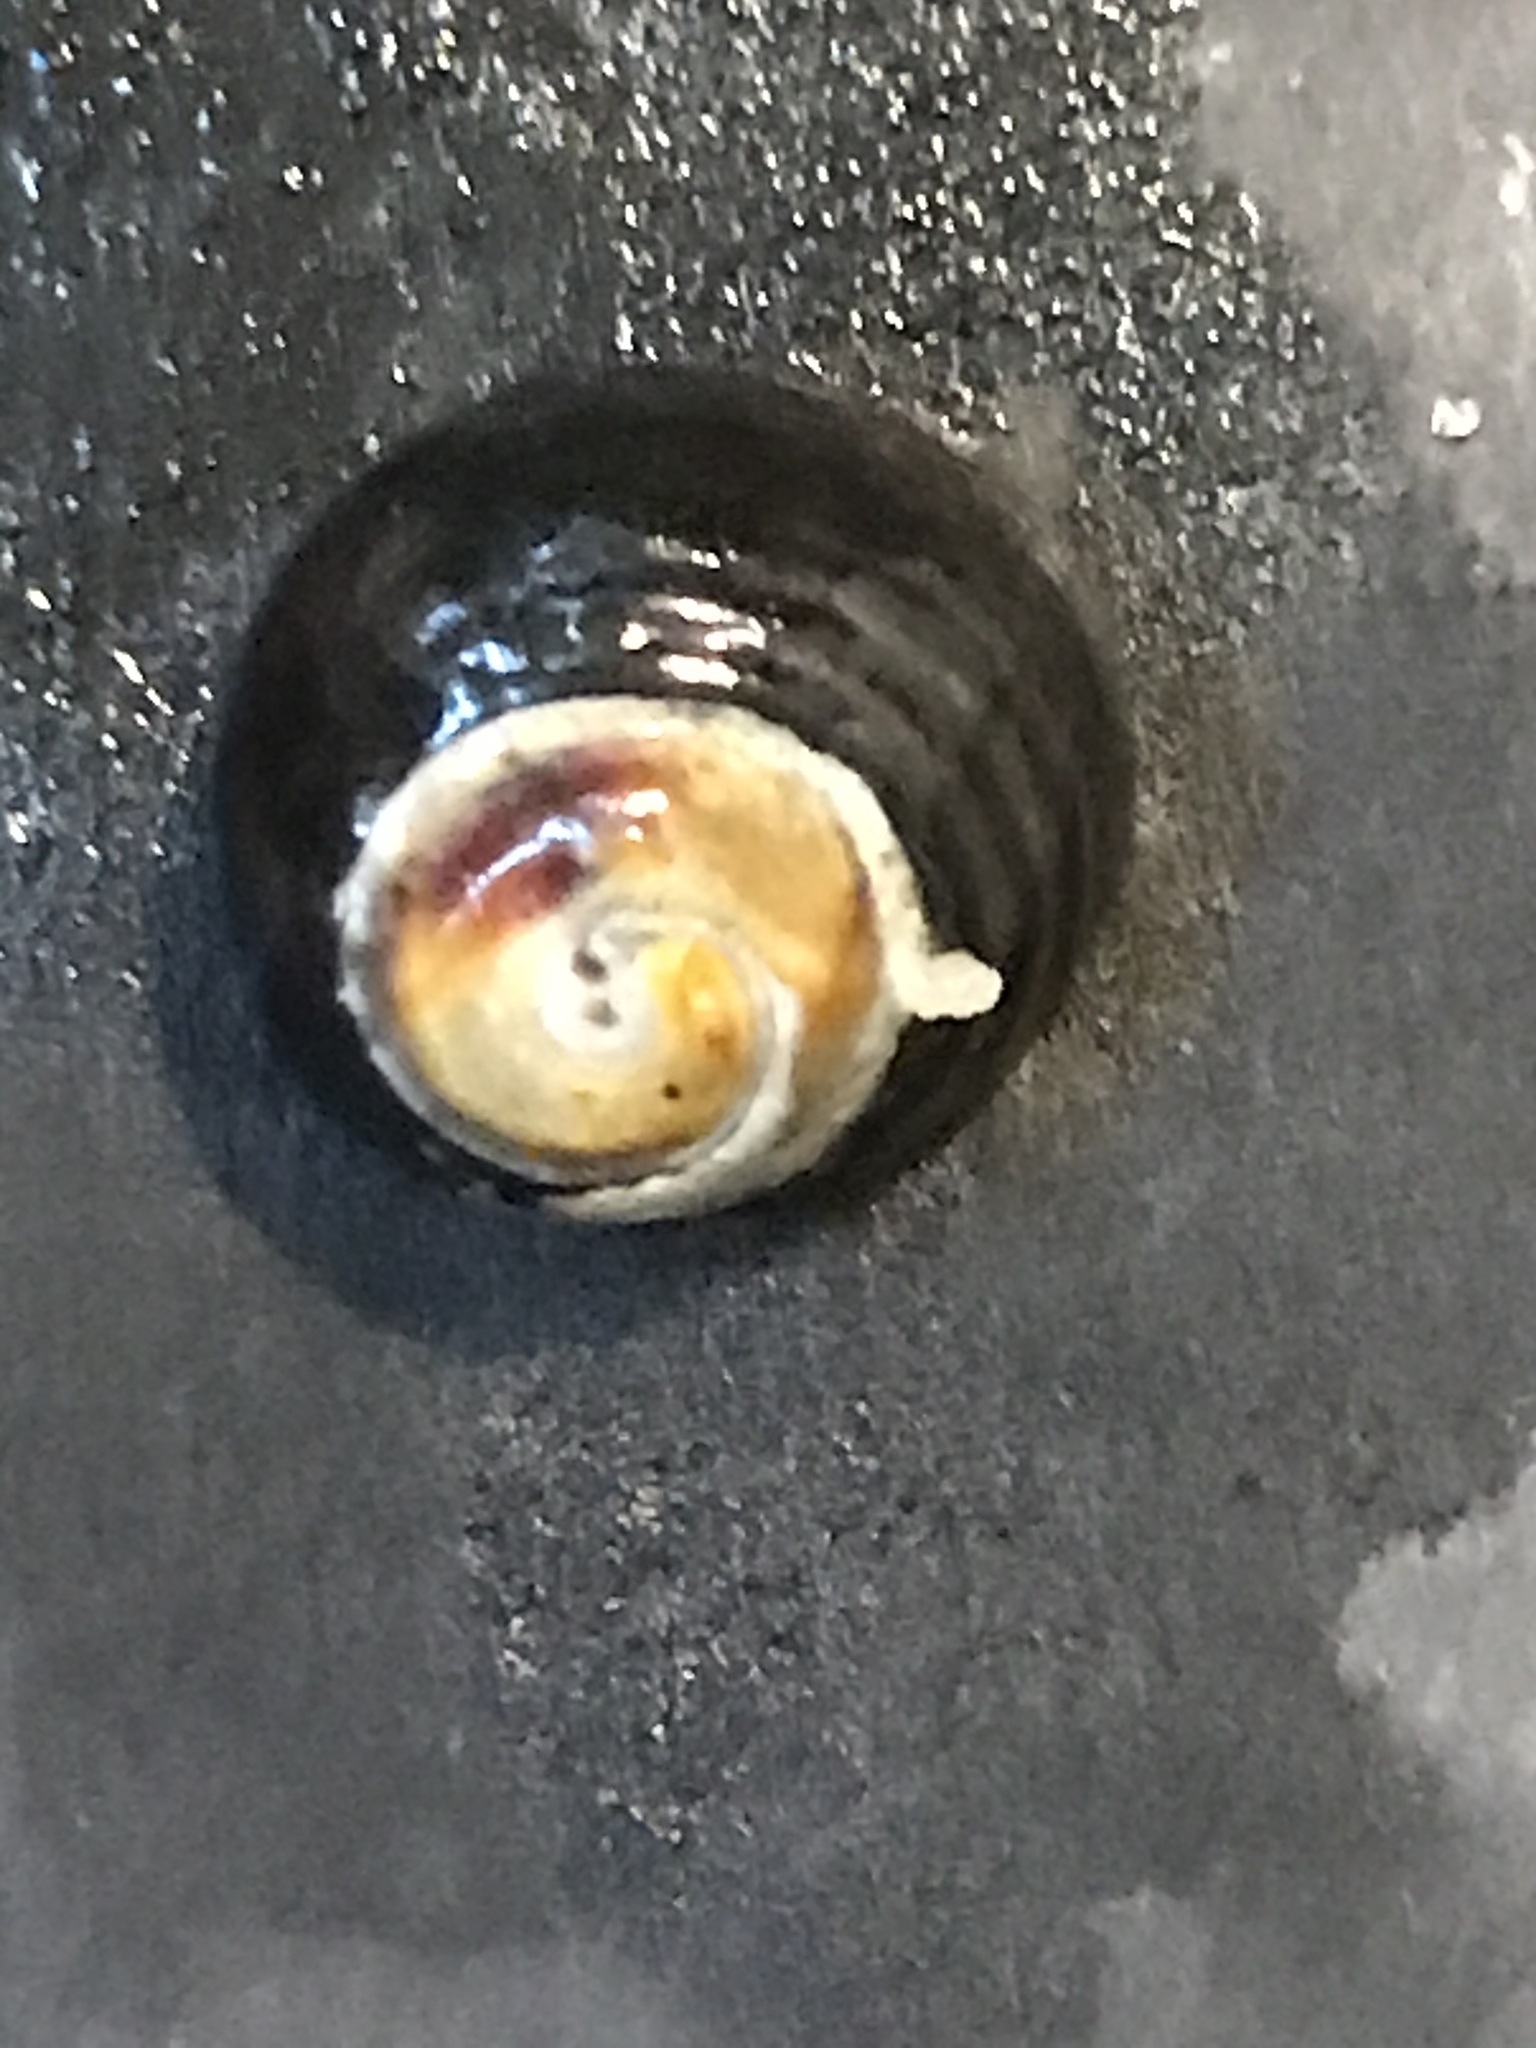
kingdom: Animalia
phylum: Mollusca
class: Gastropoda
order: Trochida
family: Tegulidae
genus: Tegula
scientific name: Tegula funebralis
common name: Black tegula
